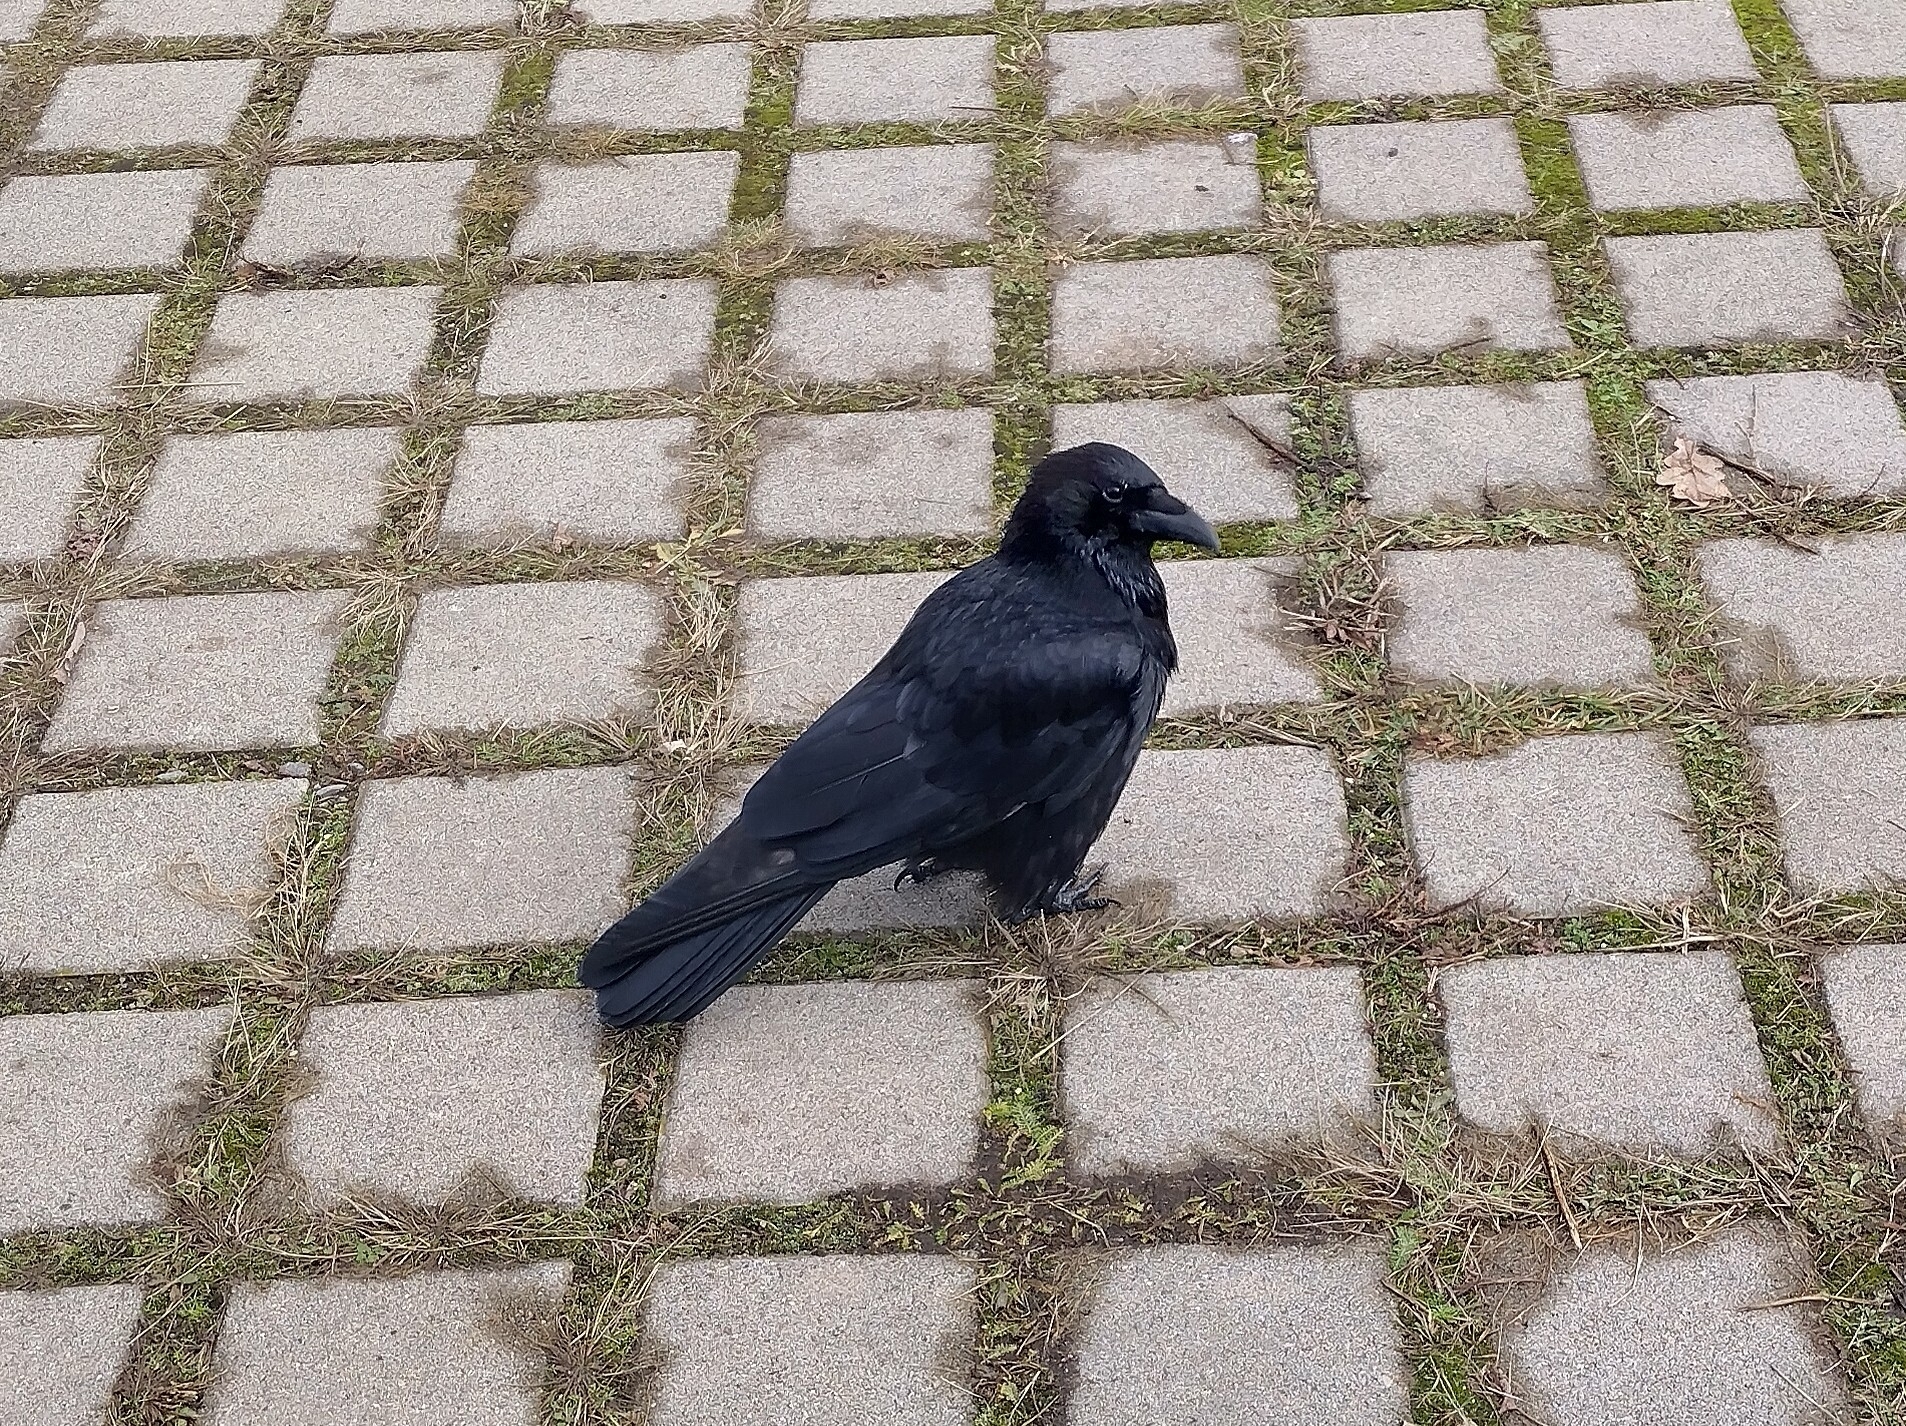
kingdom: Animalia
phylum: Chordata
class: Aves
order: Passeriformes
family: Corvidae
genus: Corvus
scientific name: Corvus corone
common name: Carrion crow
